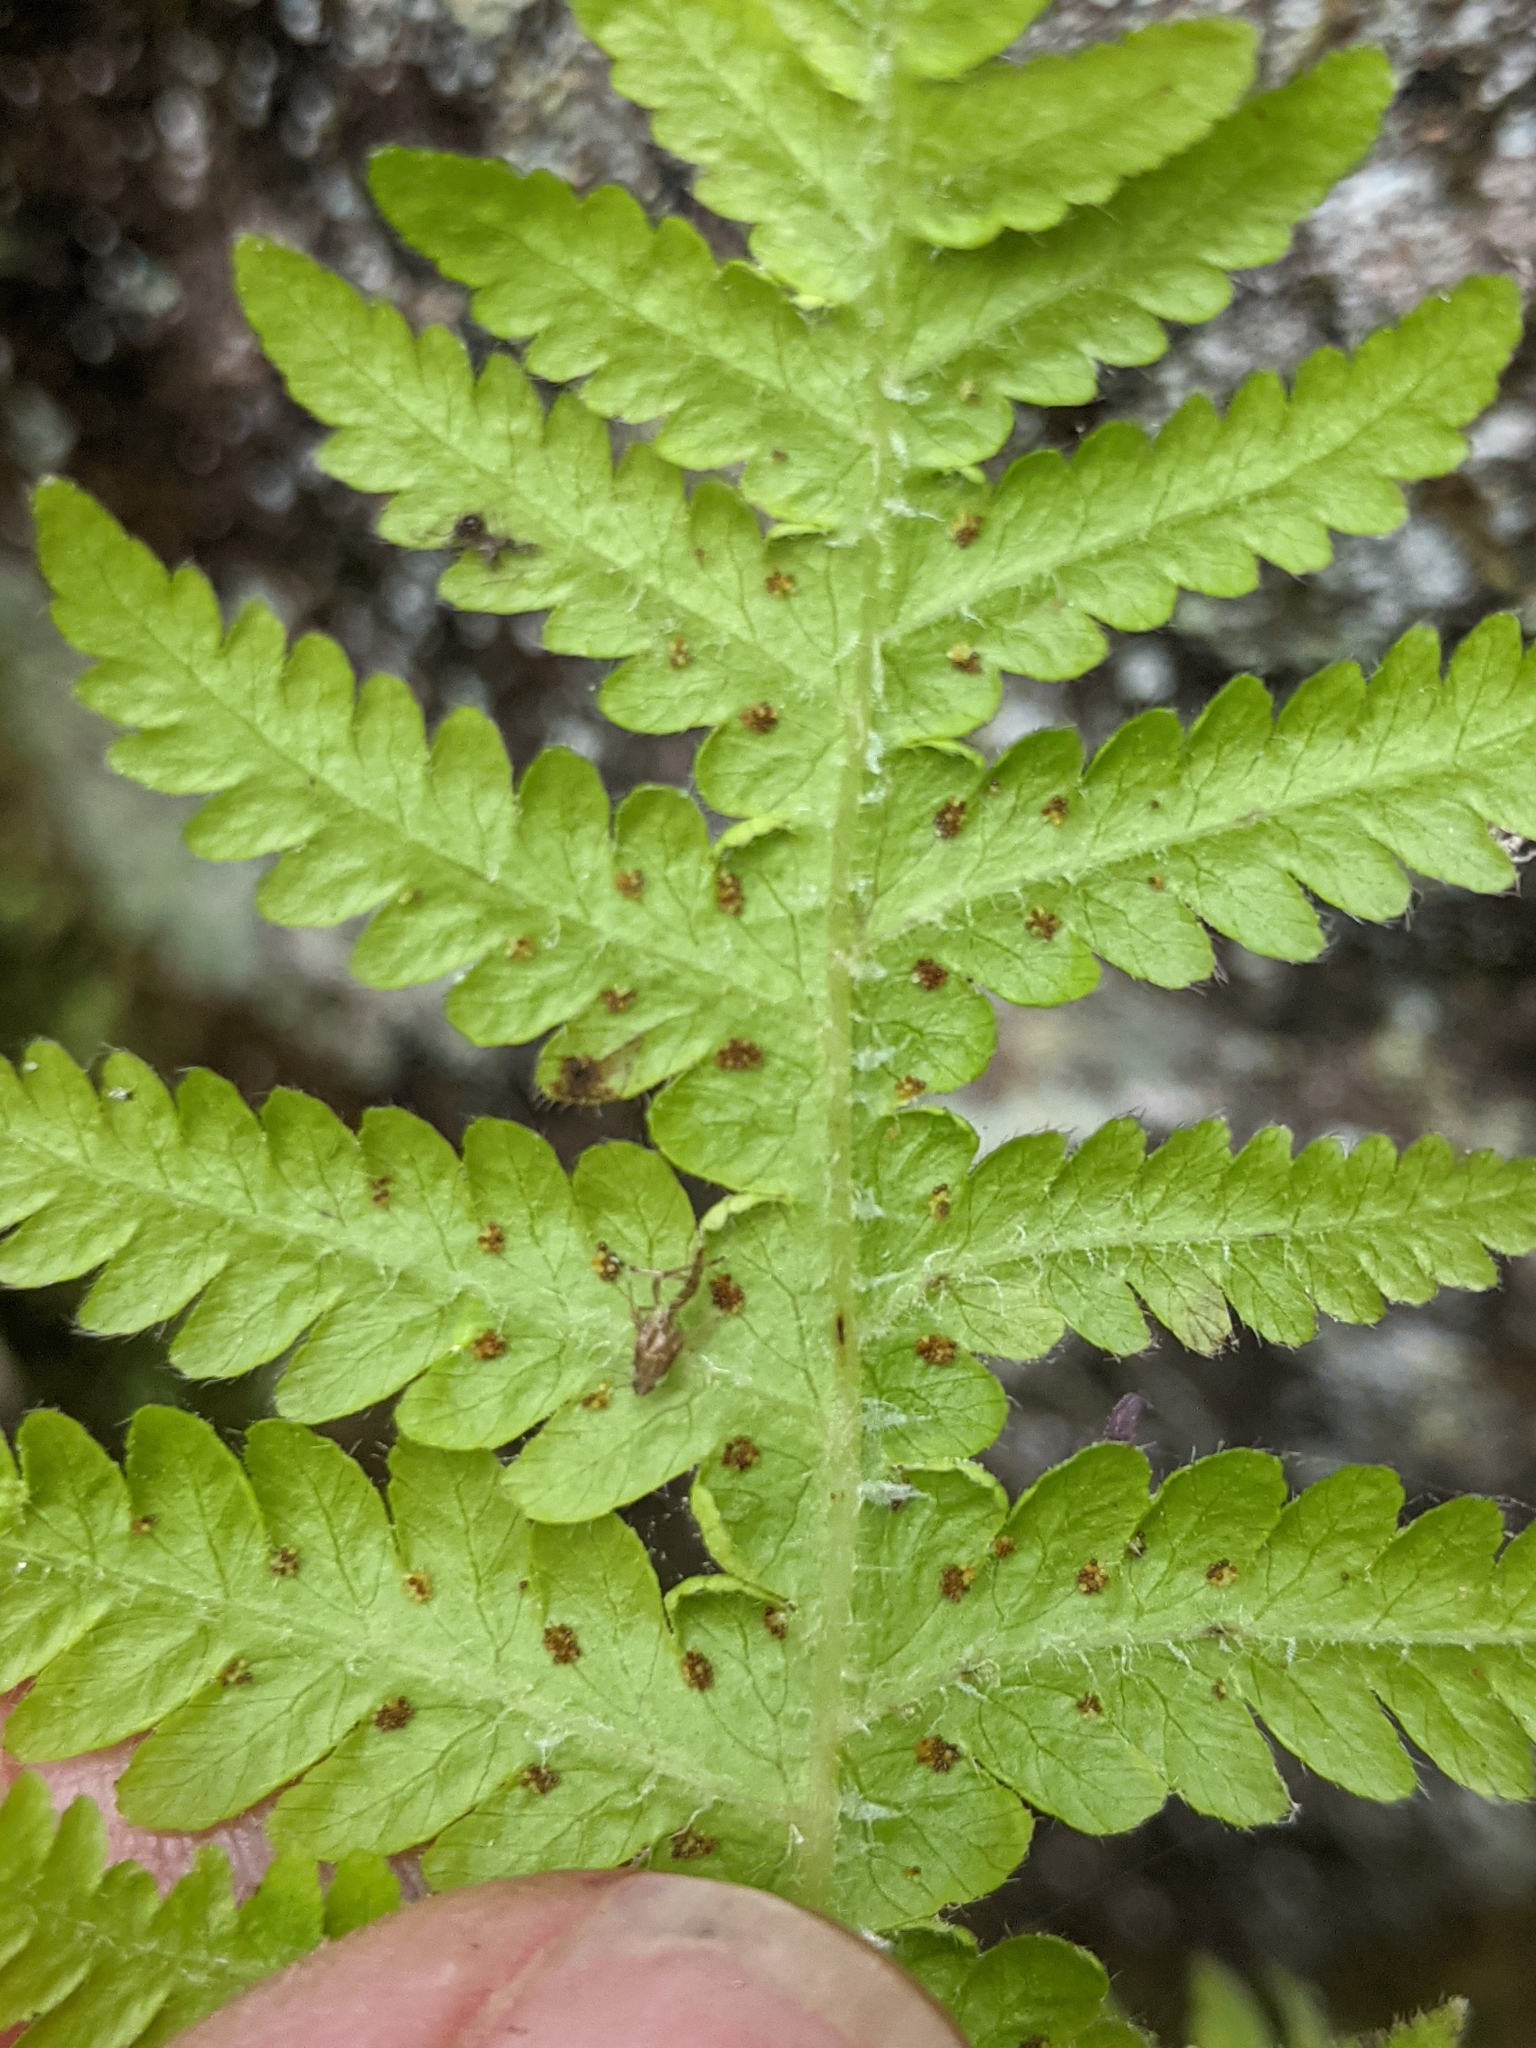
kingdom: Plantae
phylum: Tracheophyta
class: Polypodiopsida
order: Polypodiales
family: Thelypteridaceae
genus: Phegopteris
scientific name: Phegopteris connectilis
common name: Beech fern
